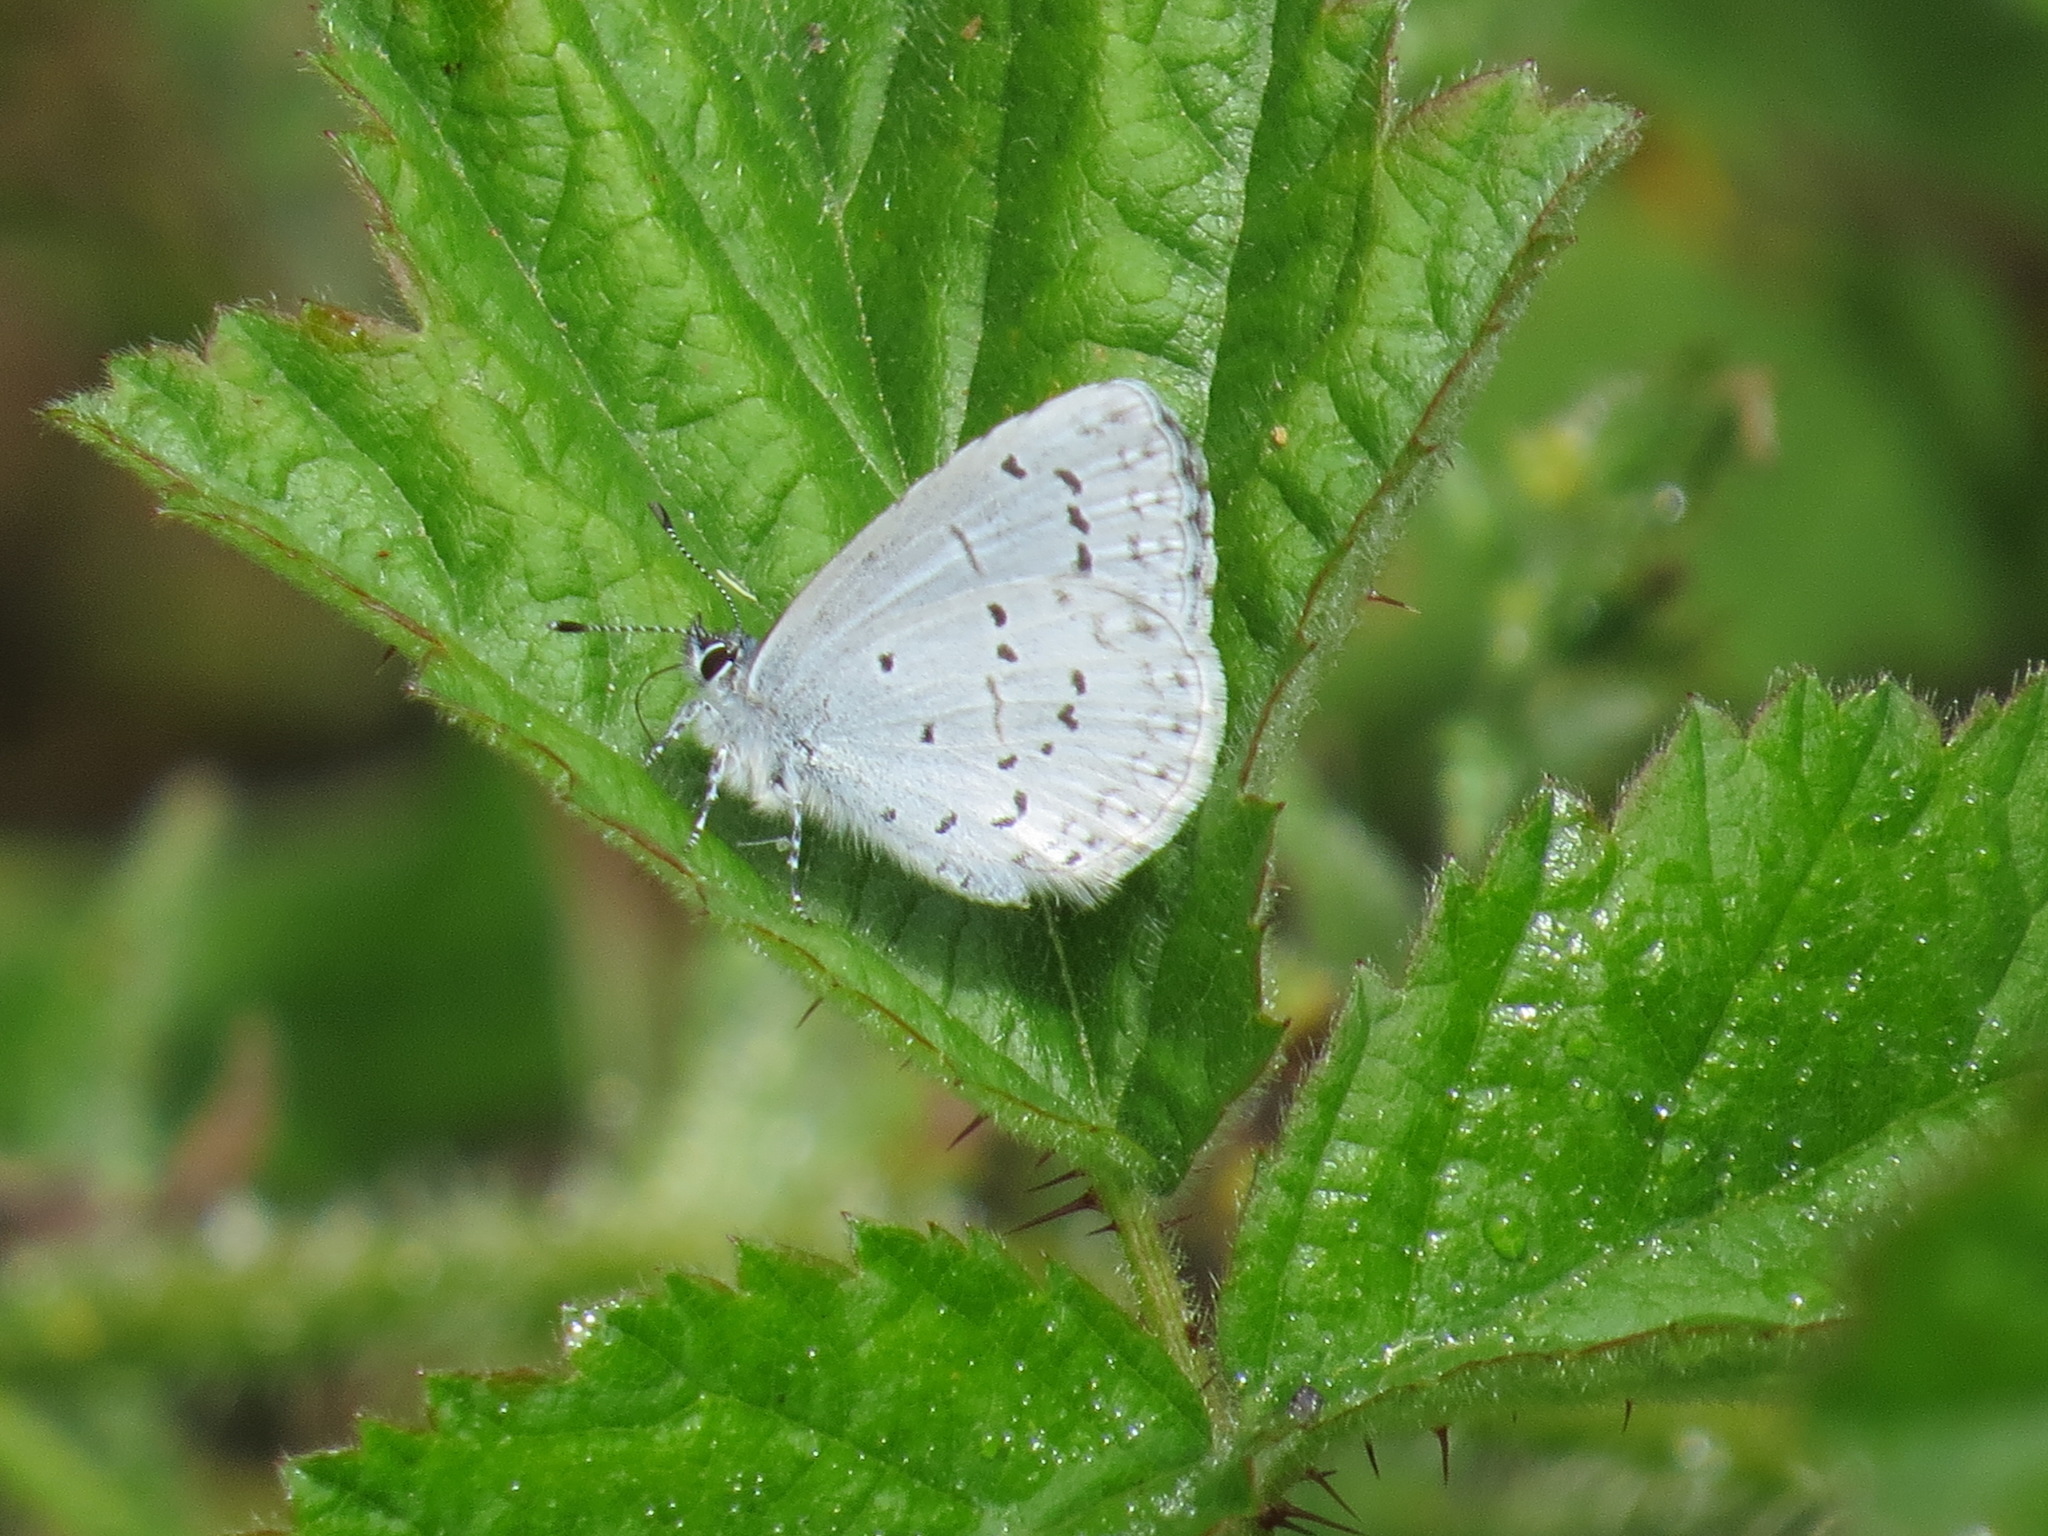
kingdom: Animalia
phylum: Arthropoda
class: Insecta
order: Lepidoptera
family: Lycaenidae
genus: Celastrina
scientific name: Celastrina ladon
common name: Spring azure
